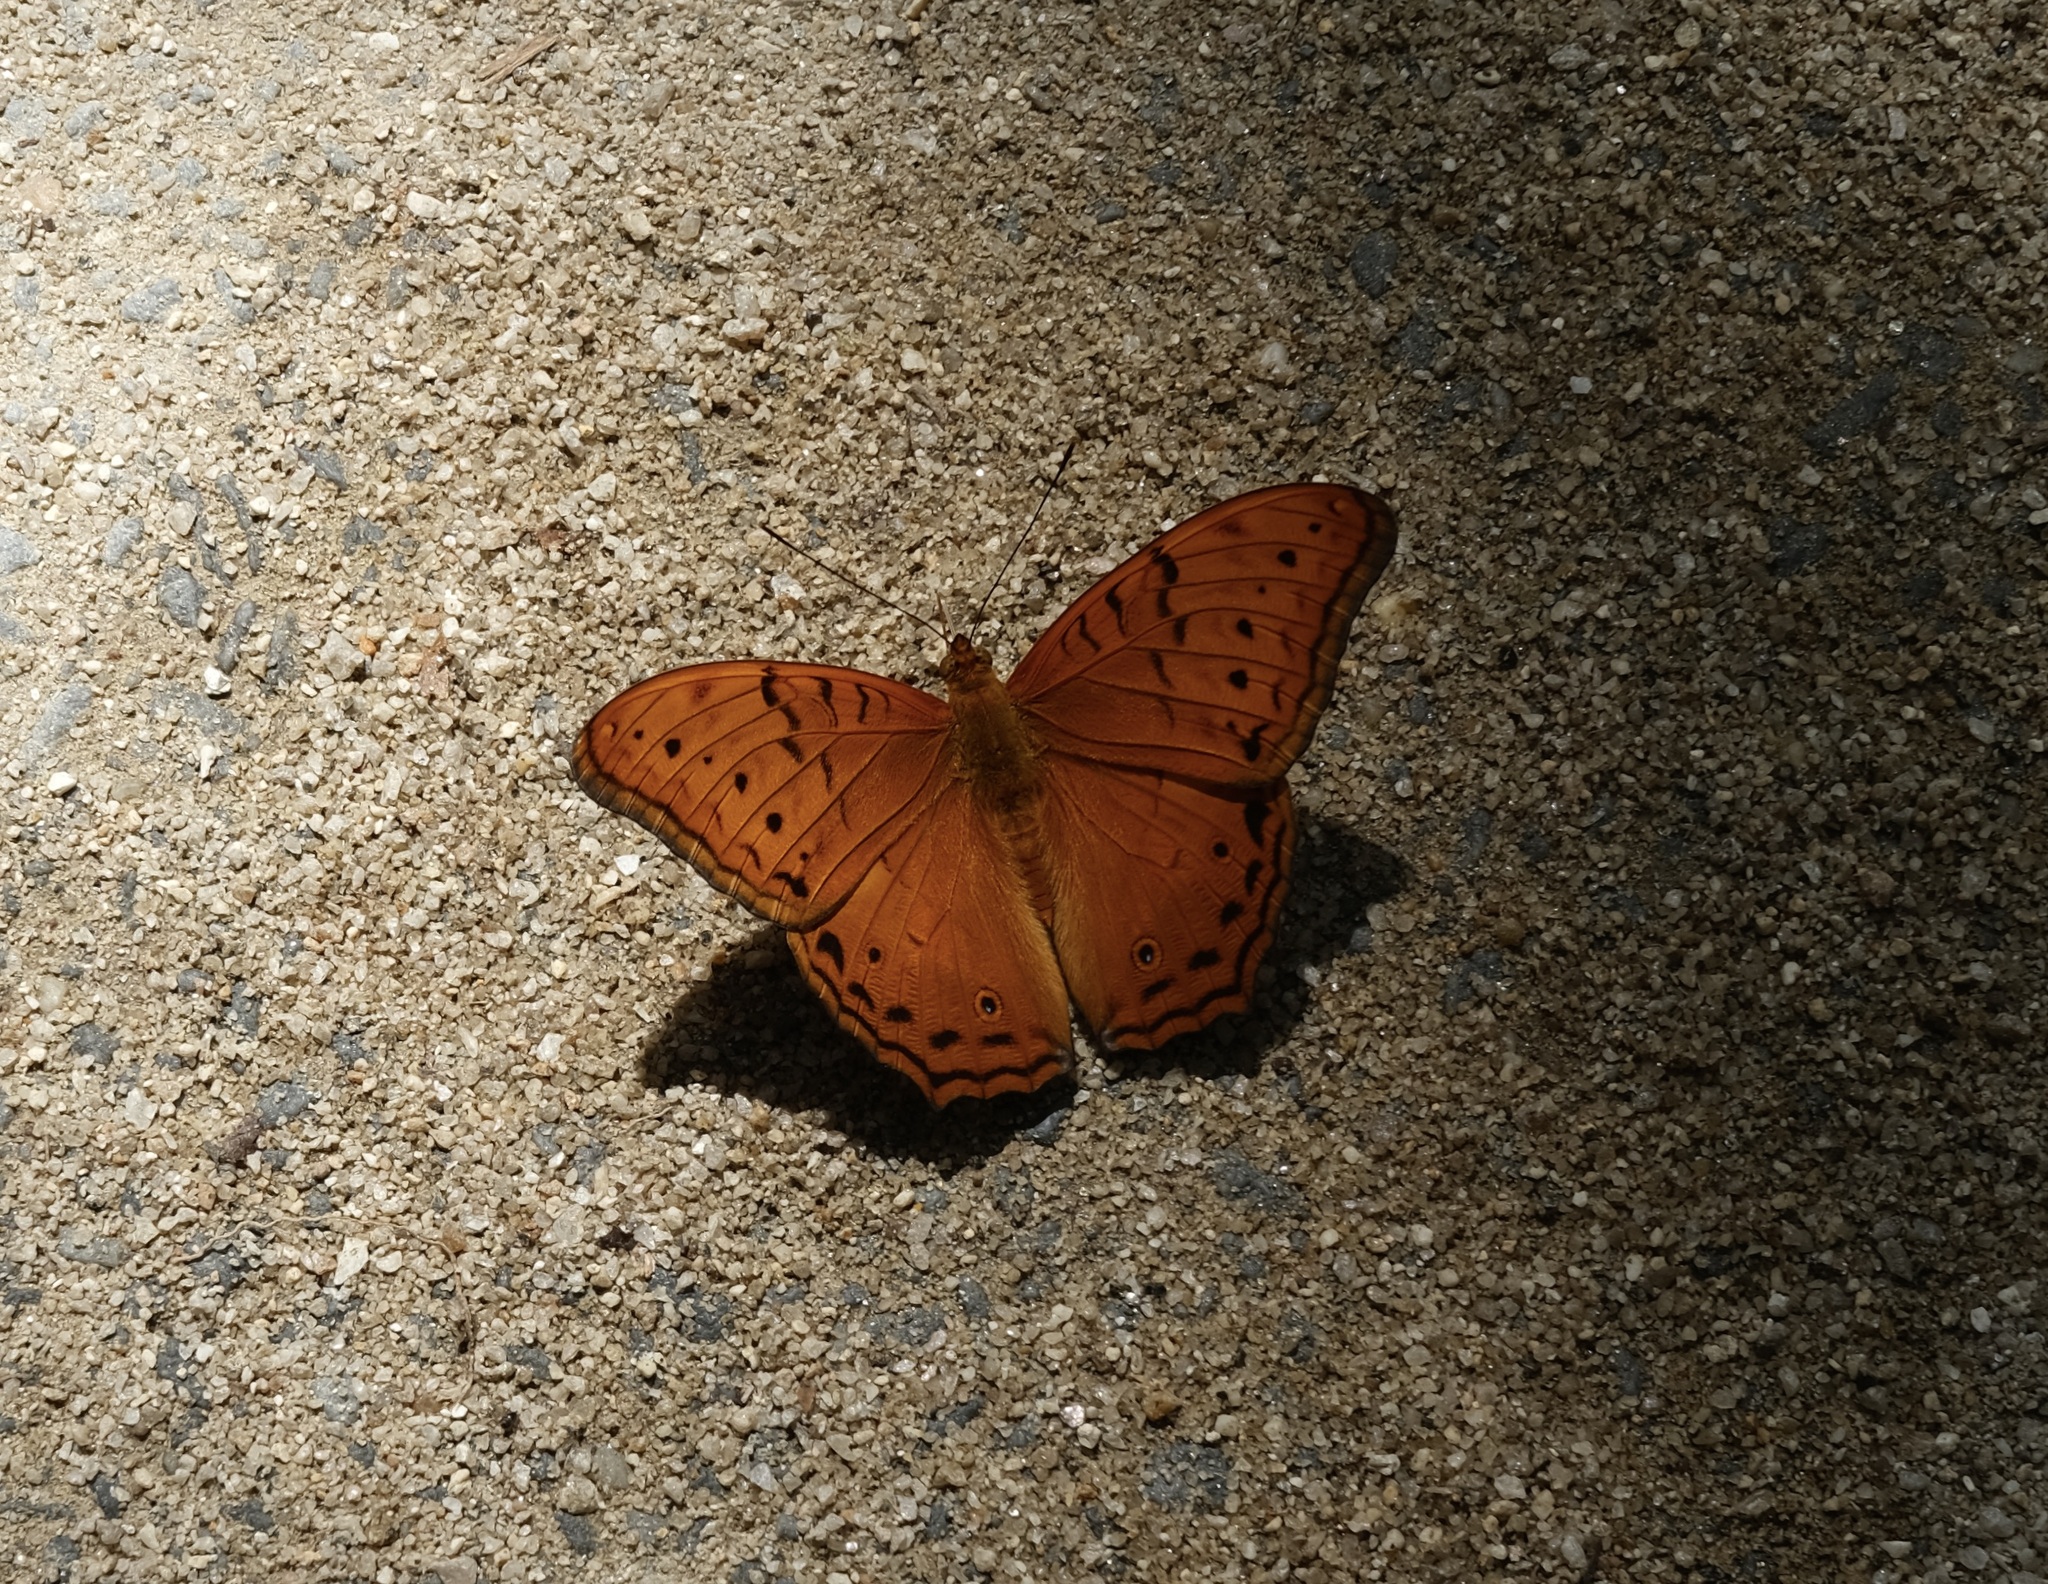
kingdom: Animalia
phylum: Arthropoda
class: Insecta
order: Lepidoptera
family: Nymphalidae
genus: Vindula
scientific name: Vindula arsinoe
